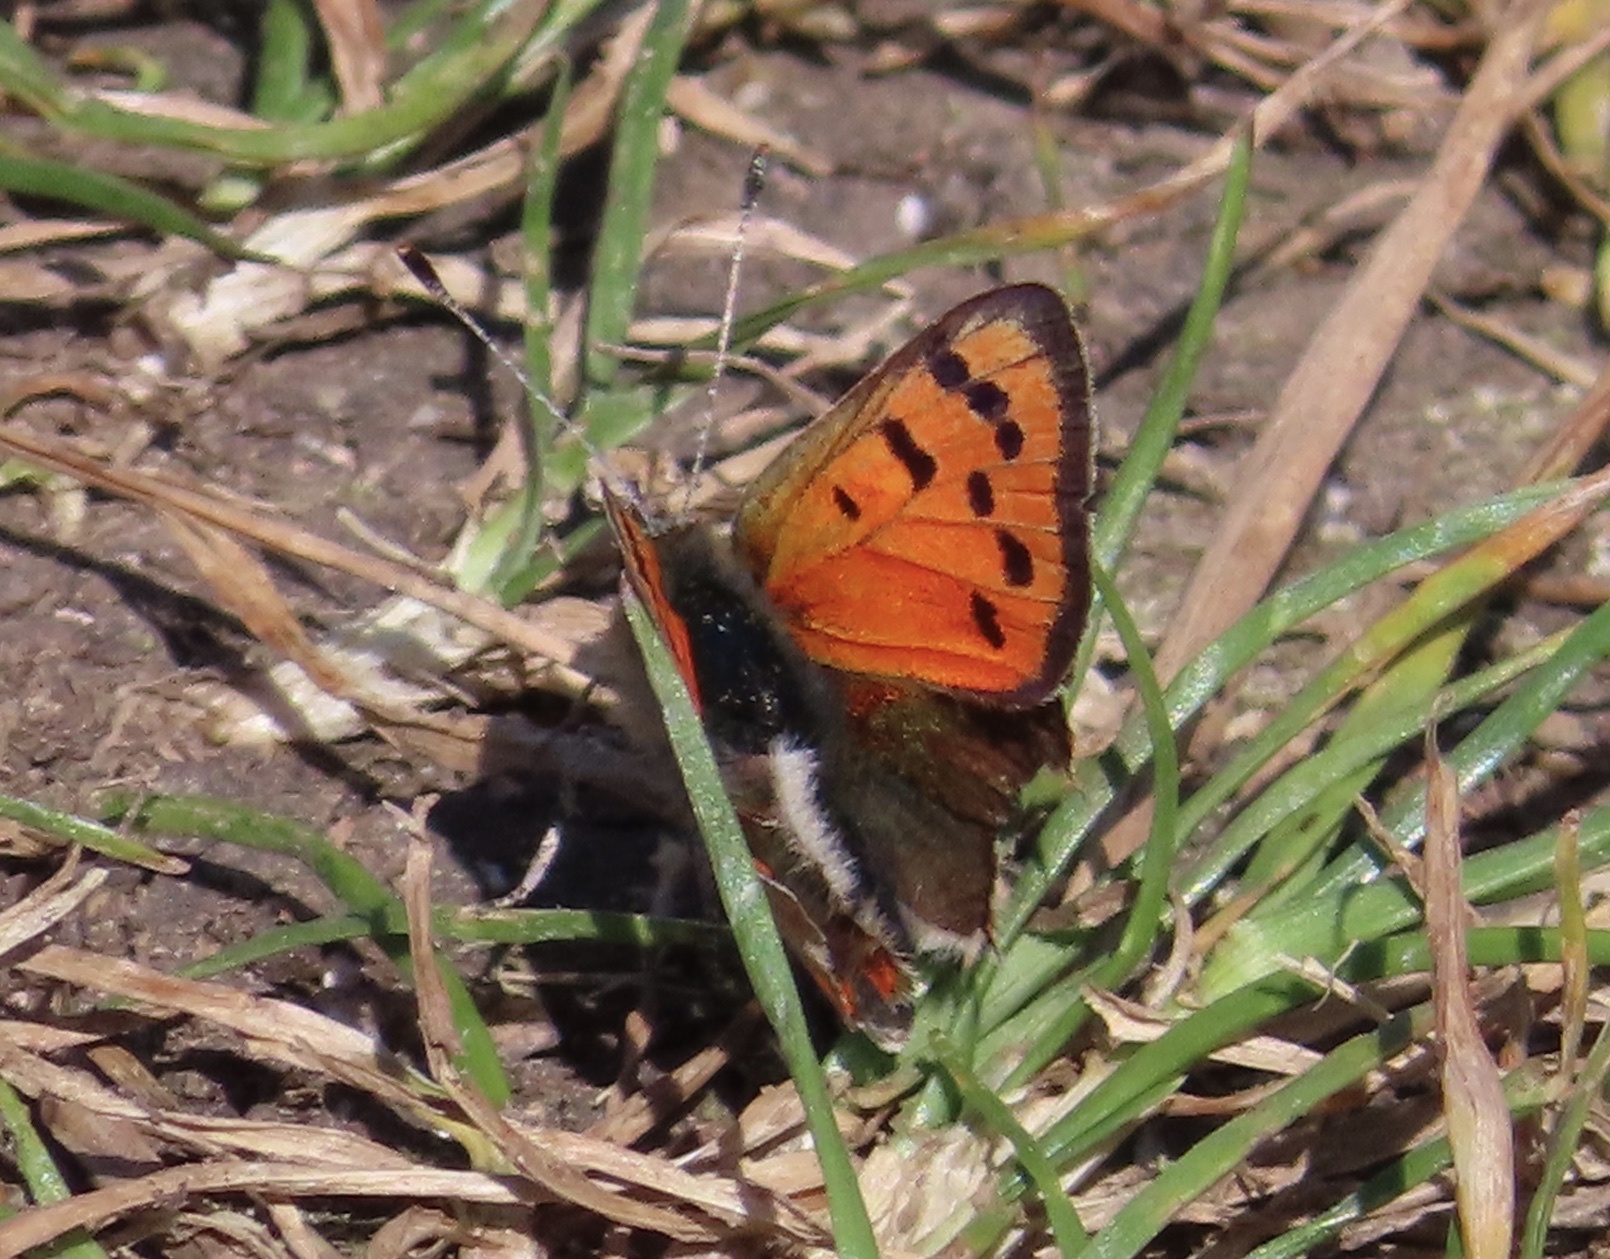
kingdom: Animalia
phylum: Arthropoda
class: Insecta
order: Lepidoptera
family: Lycaenidae
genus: Lycaena
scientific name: Lycaena phlaeas
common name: Small copper
